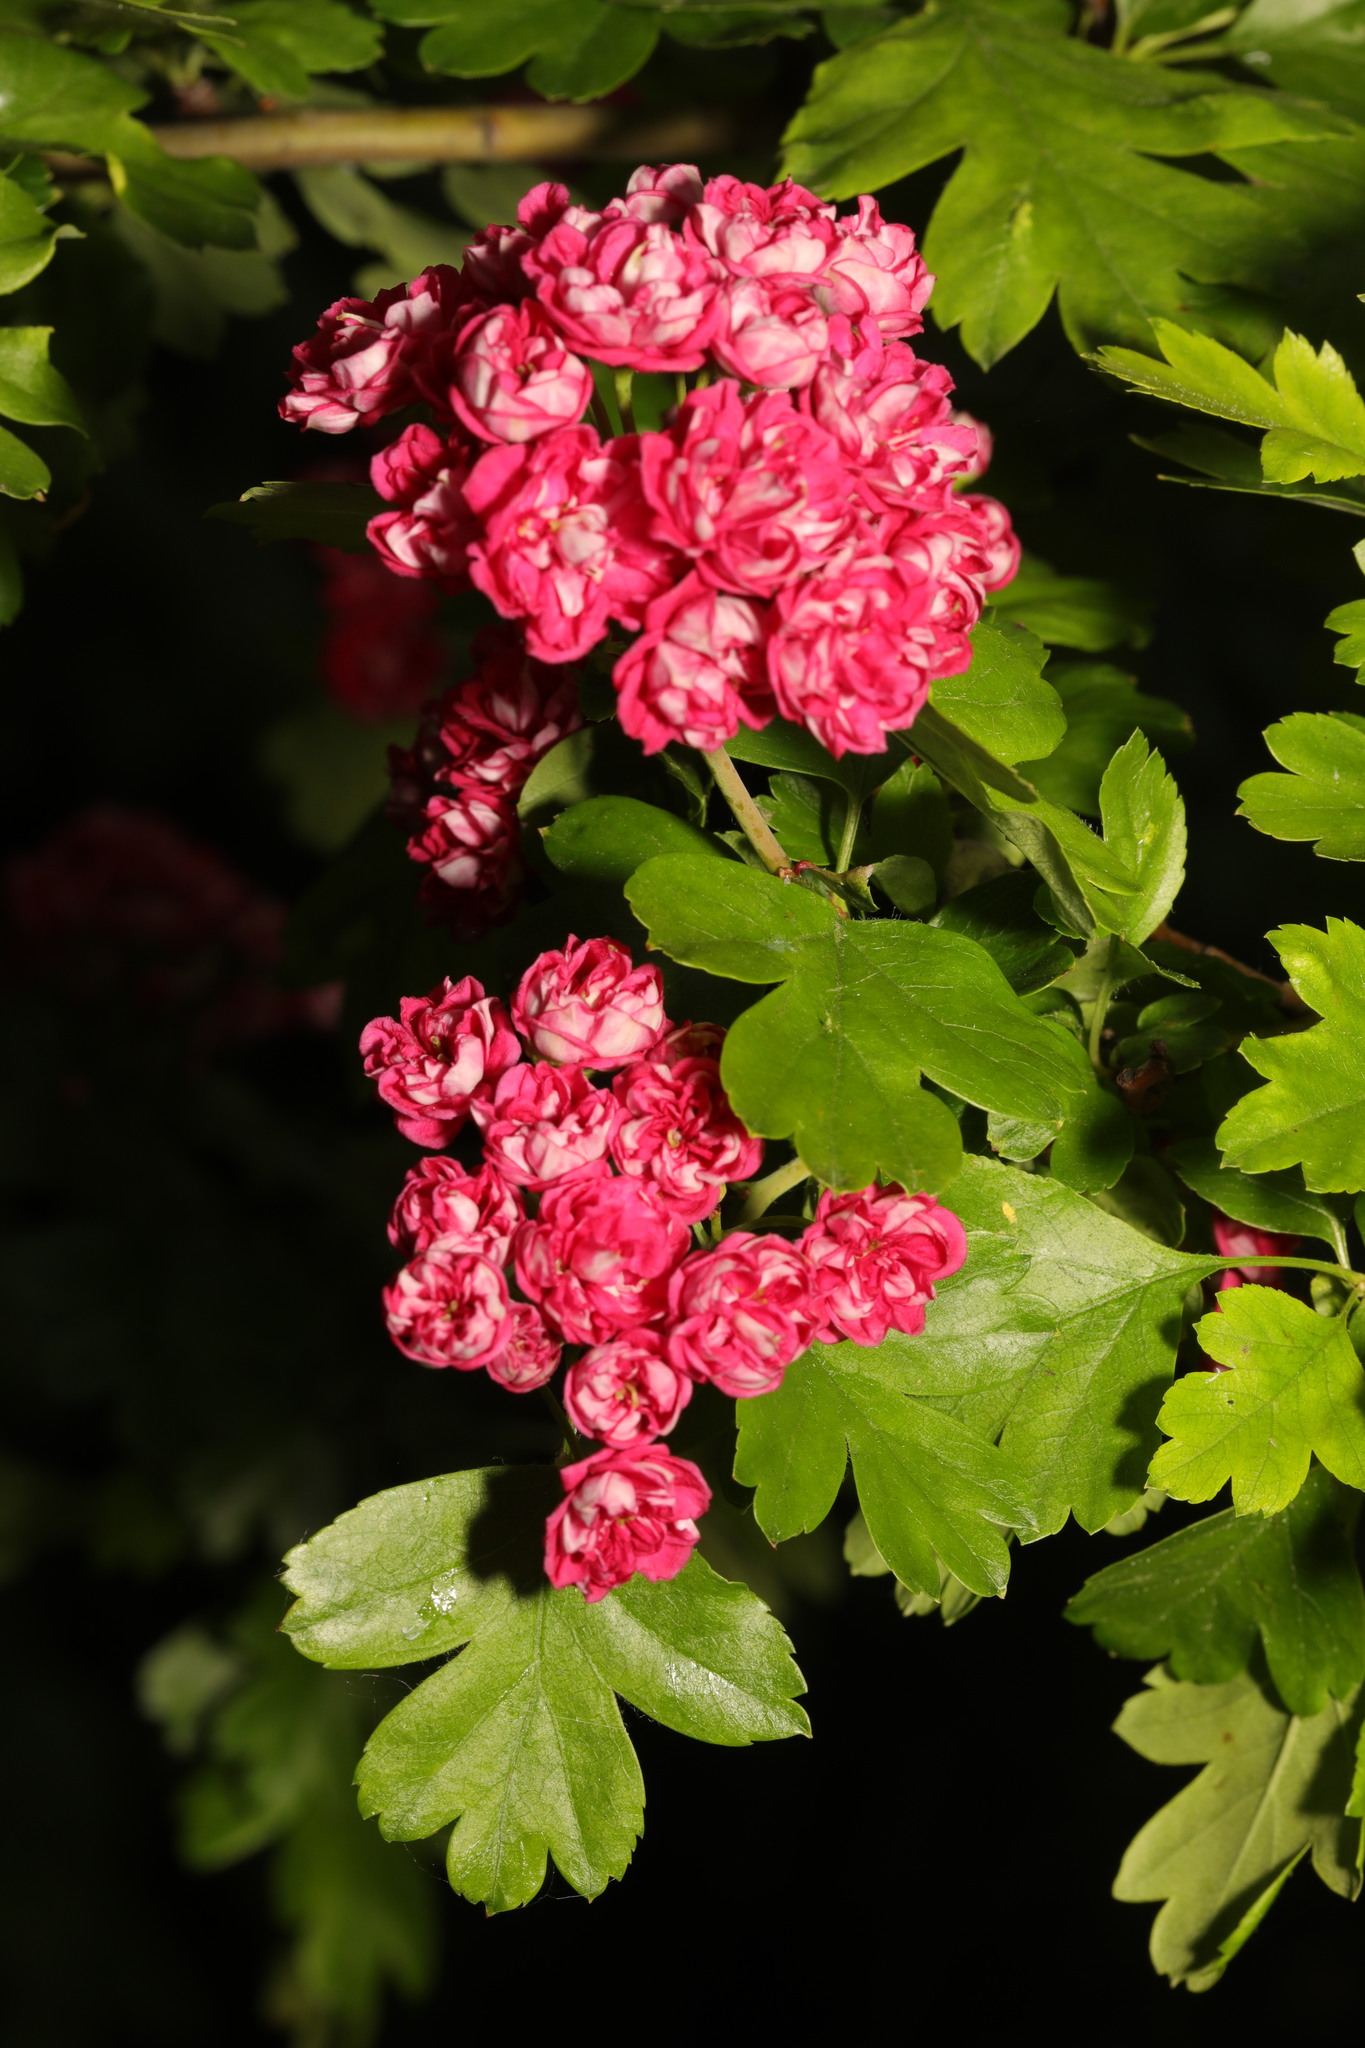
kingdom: Plantae
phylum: Tracheophyta
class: Magnoliopsida
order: Rosales
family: Rosaceae
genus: Crataegus
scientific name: Crataegus laevigata
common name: Midland hawthorn
